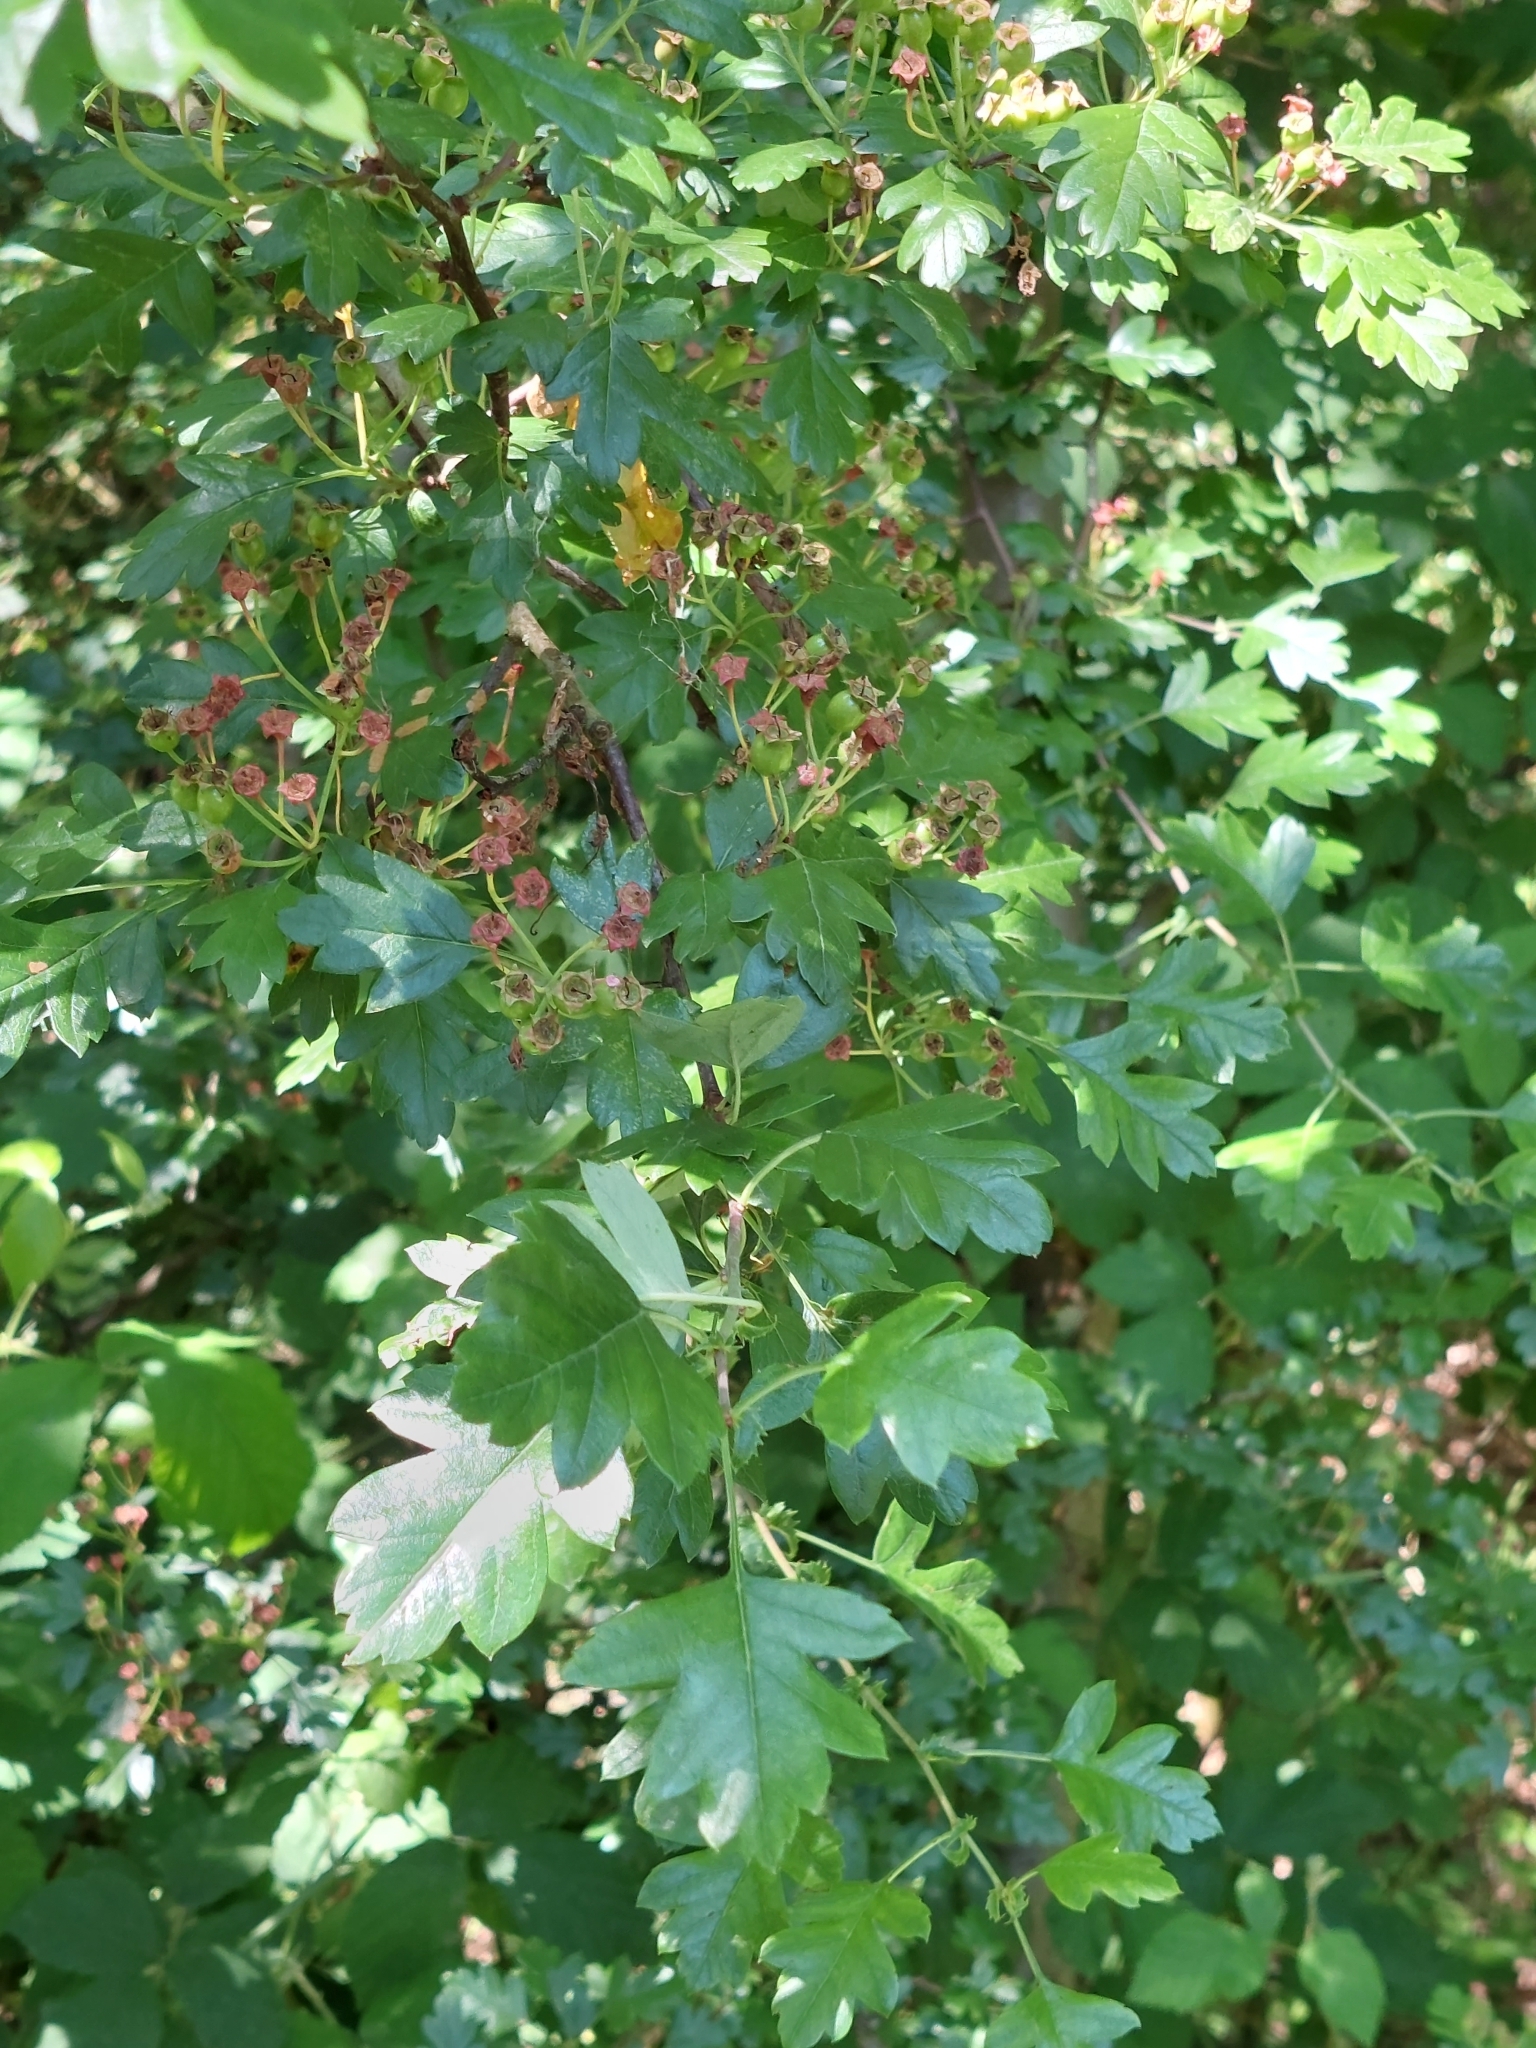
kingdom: Plantae
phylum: Tracheophyta
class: Magnoliopsida
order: Rosales
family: Rosaceae
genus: Crataegus
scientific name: Crataegus monogyna
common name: Hawthorn
